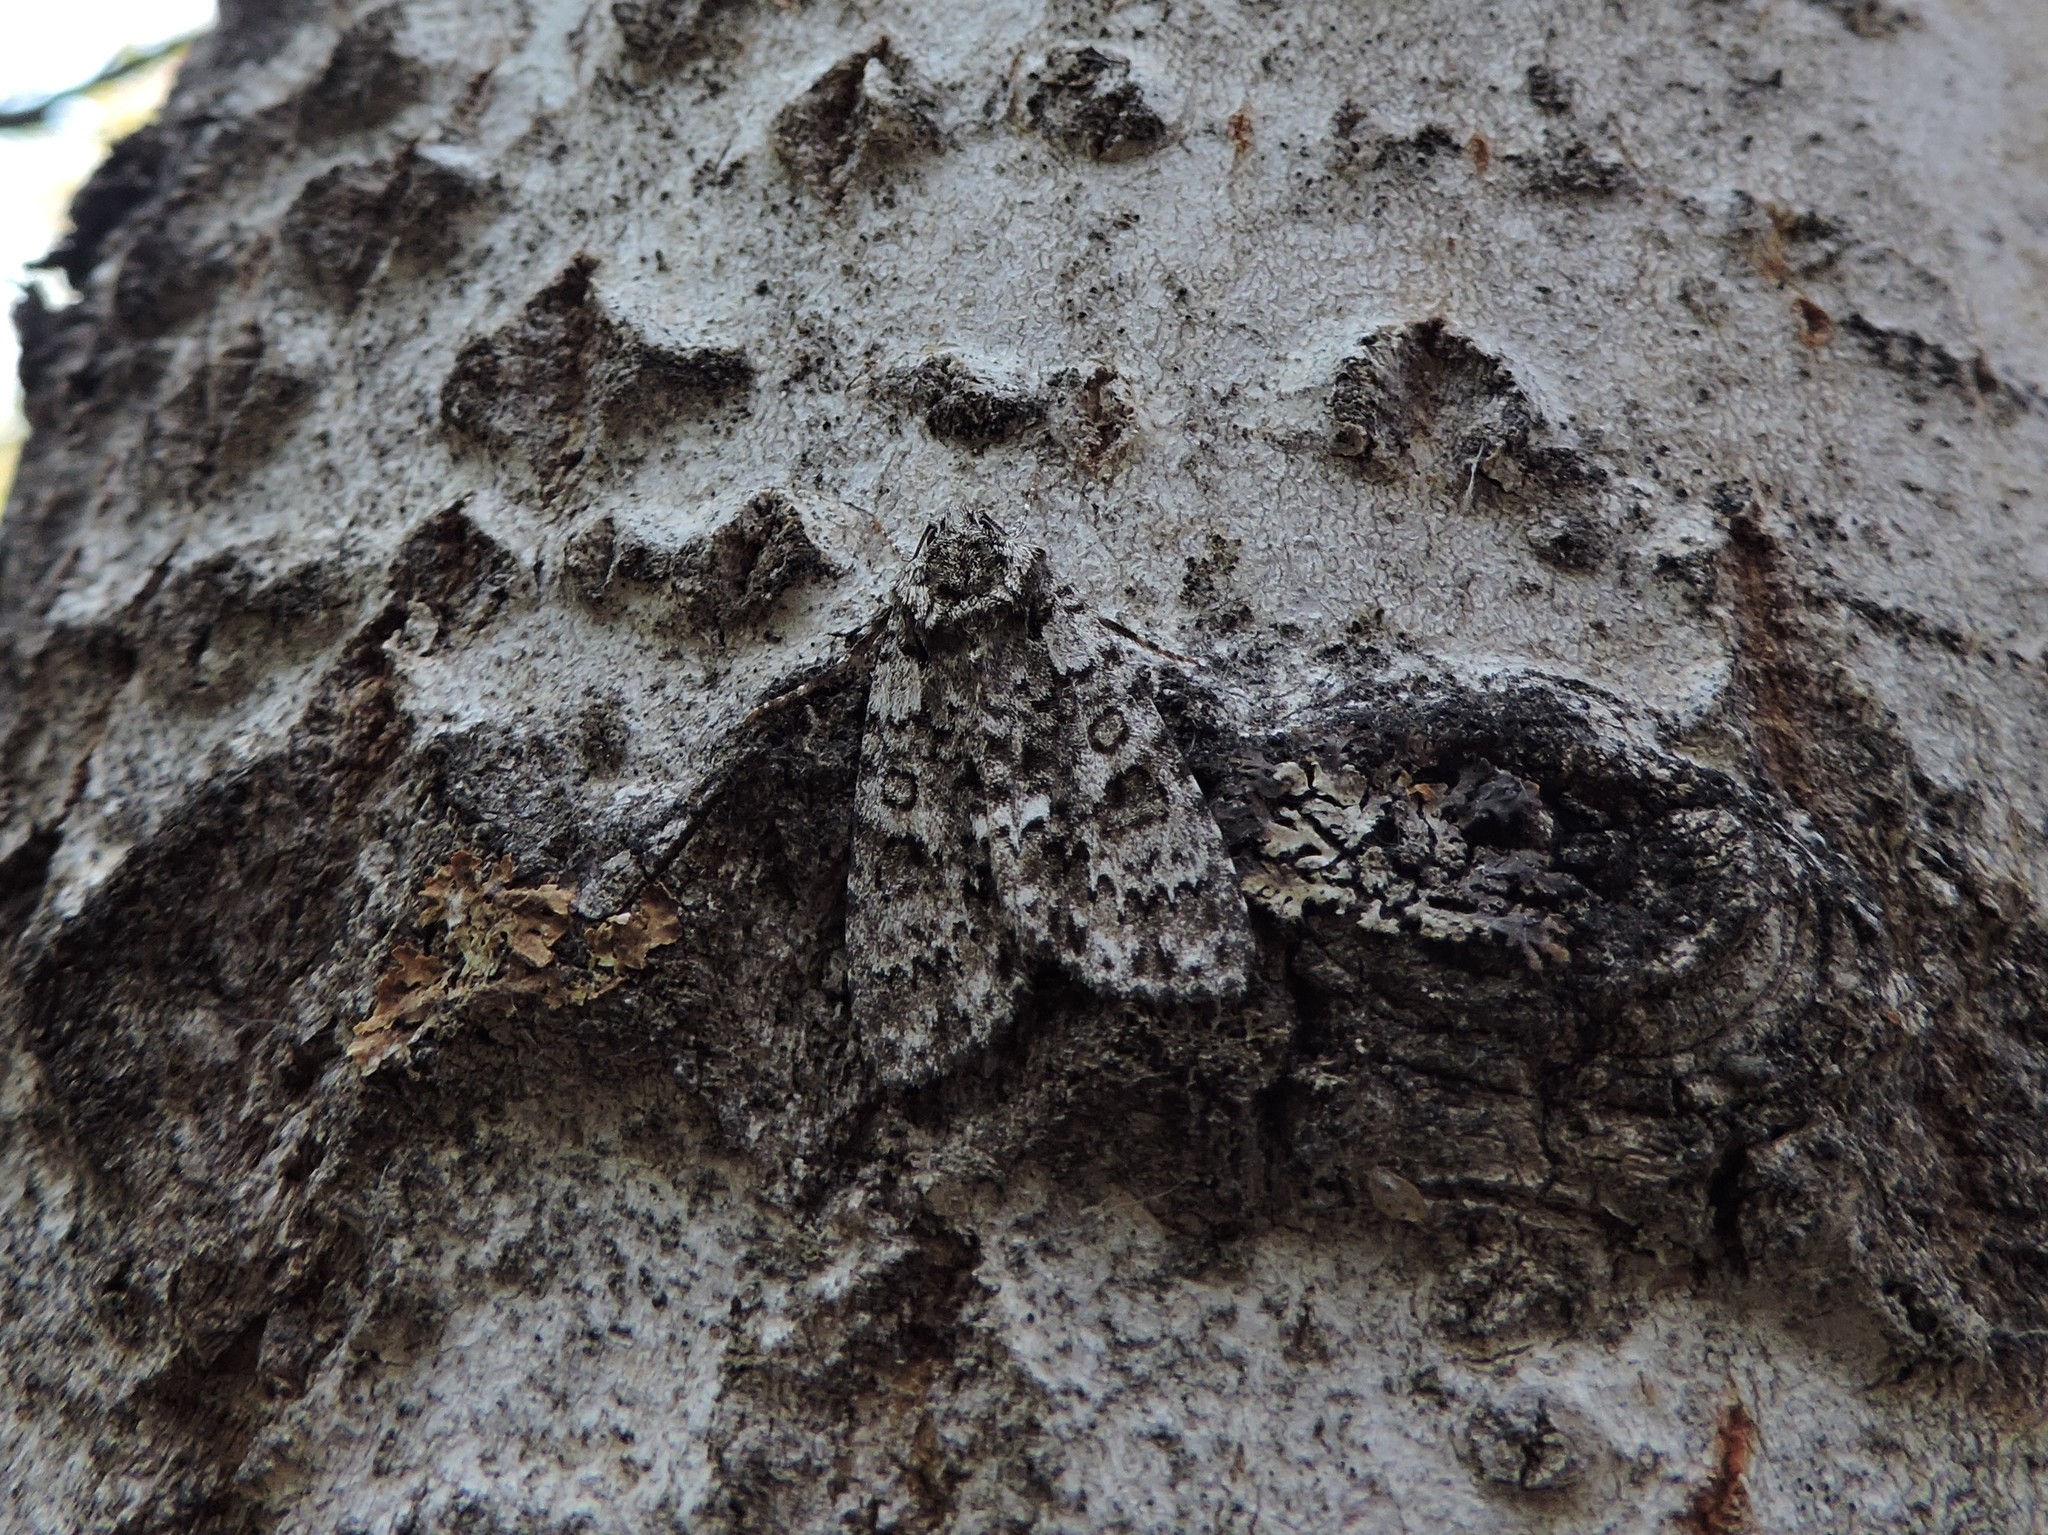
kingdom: Animalia
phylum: Arthropoda
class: Insecta
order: Lepidoptera
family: Noctuidae
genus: Acronicta
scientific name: Acronicta rumicis
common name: Knot grass
